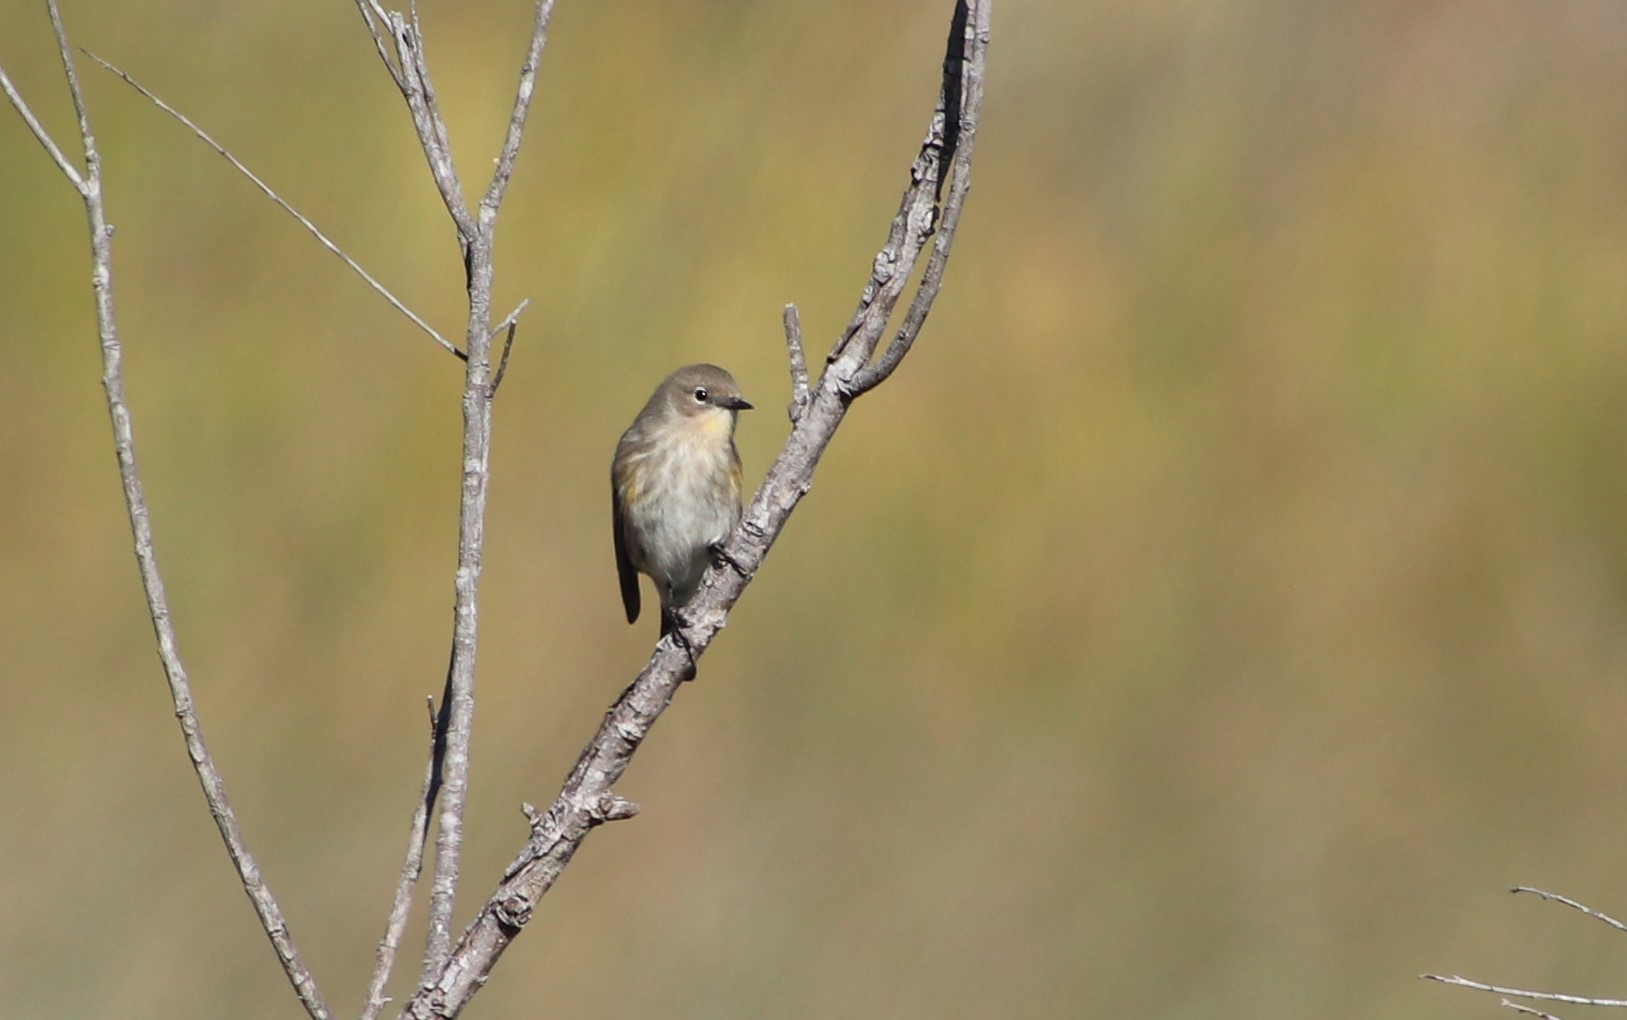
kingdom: Animalia
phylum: Chordata
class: Aves
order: Passeriformes
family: Parulidae
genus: Setophaga
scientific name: Setophaga coronata
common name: Myrtle warbler
